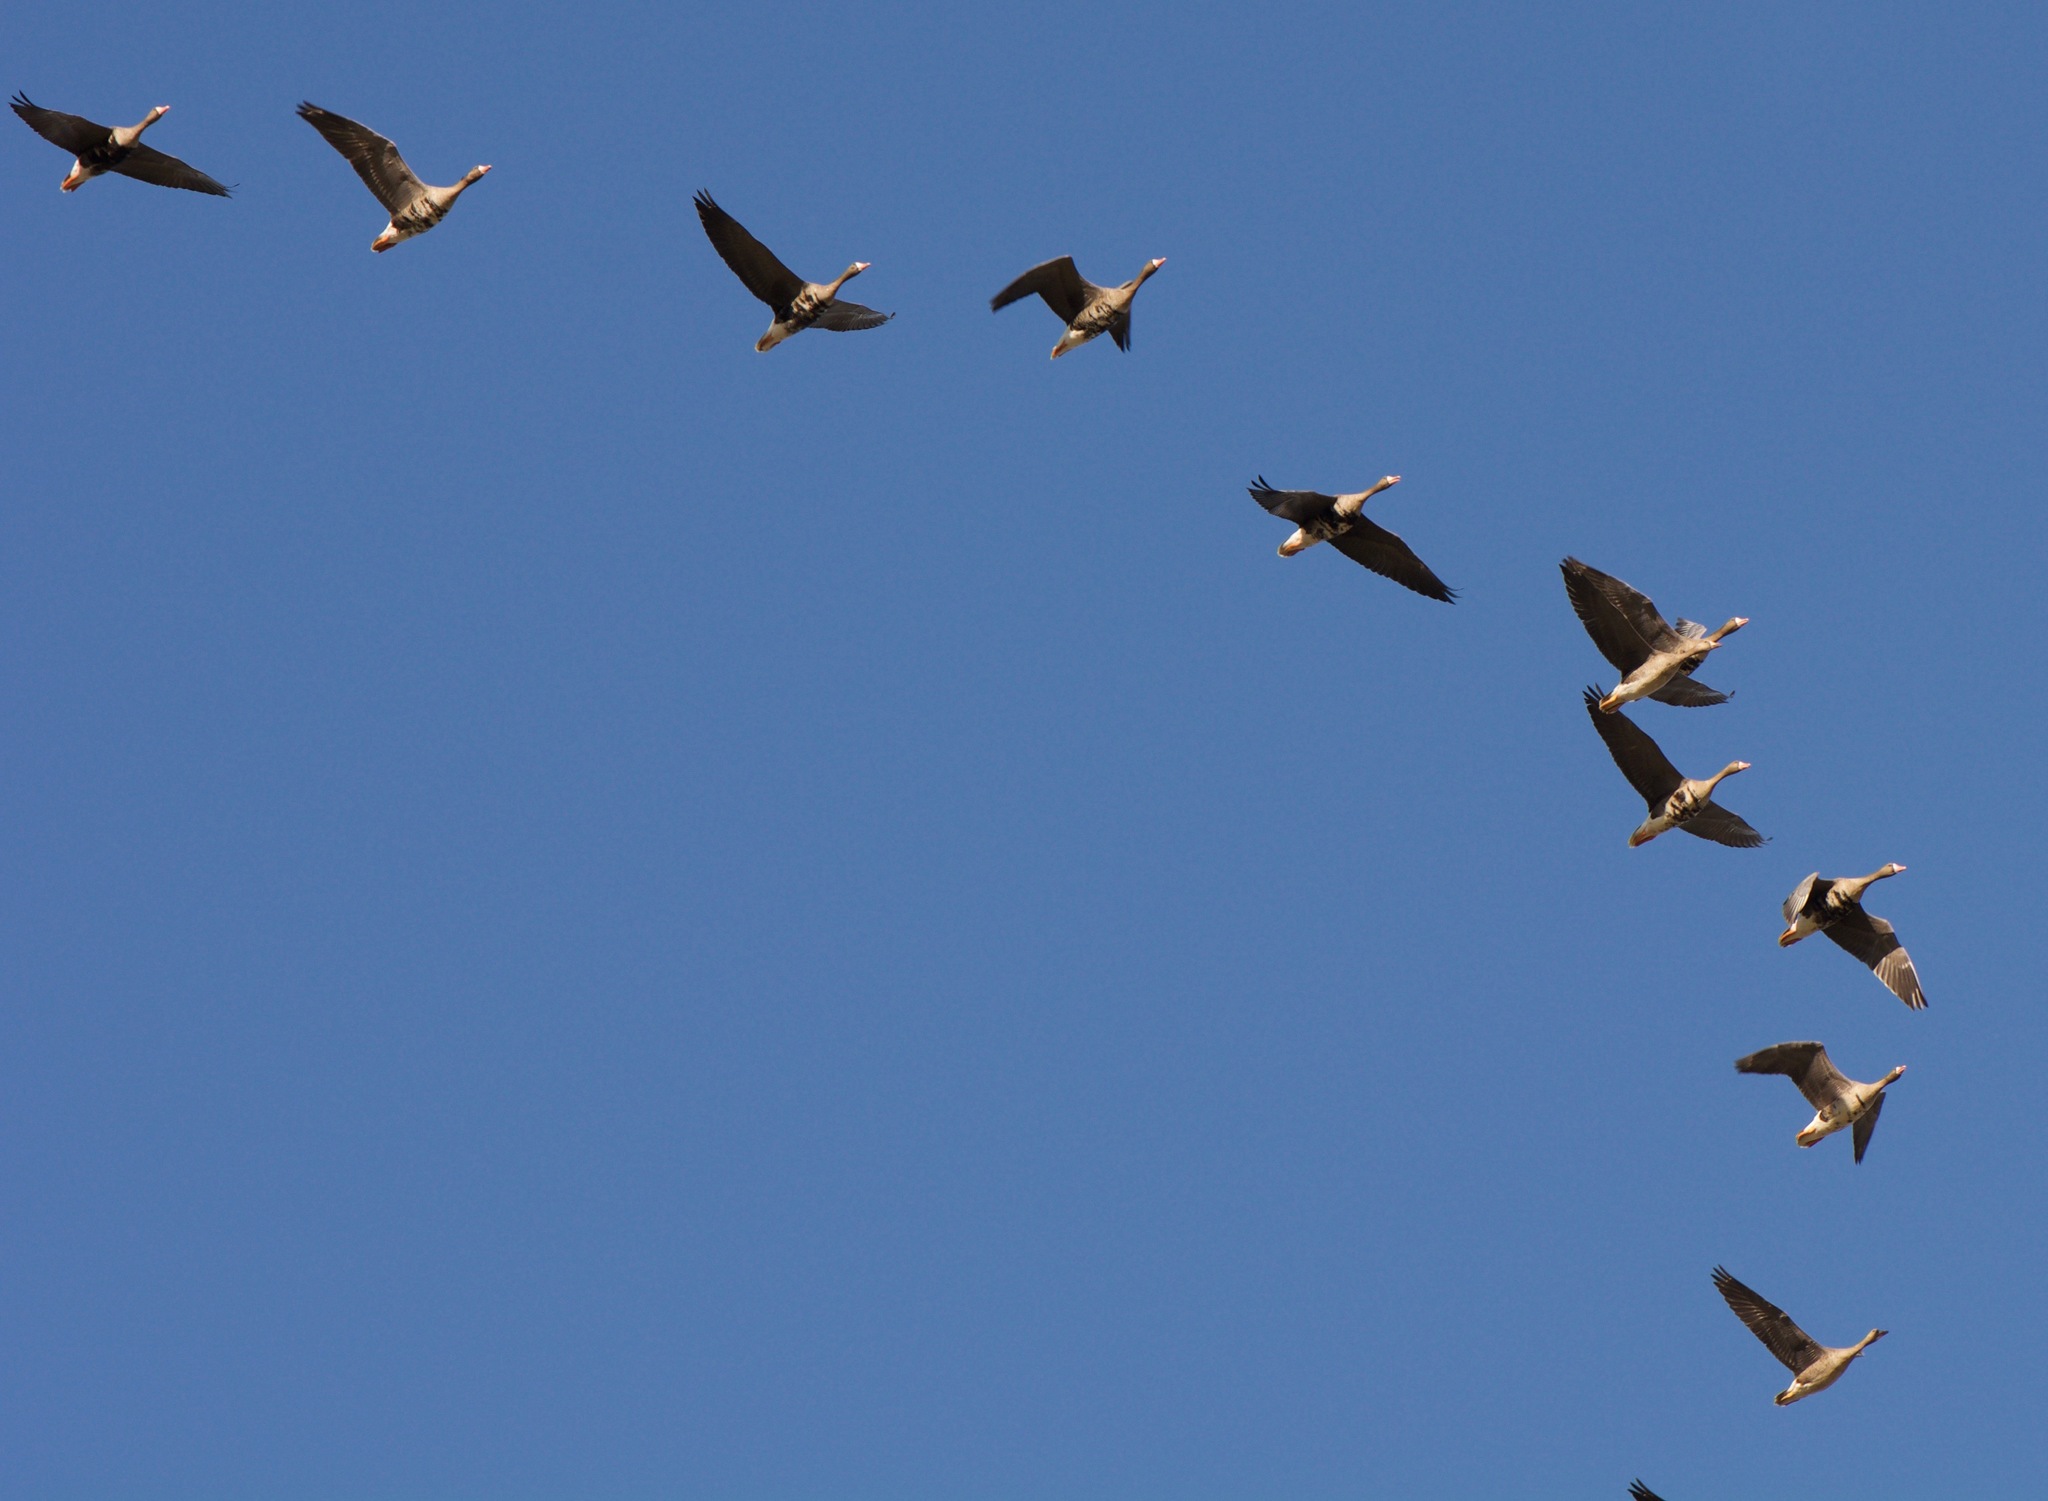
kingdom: Animalia
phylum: Chordata
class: Aves
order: Anseriformes
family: Anatidae
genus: Anser
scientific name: Anser albifrons
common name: Greater white-fronted goose
